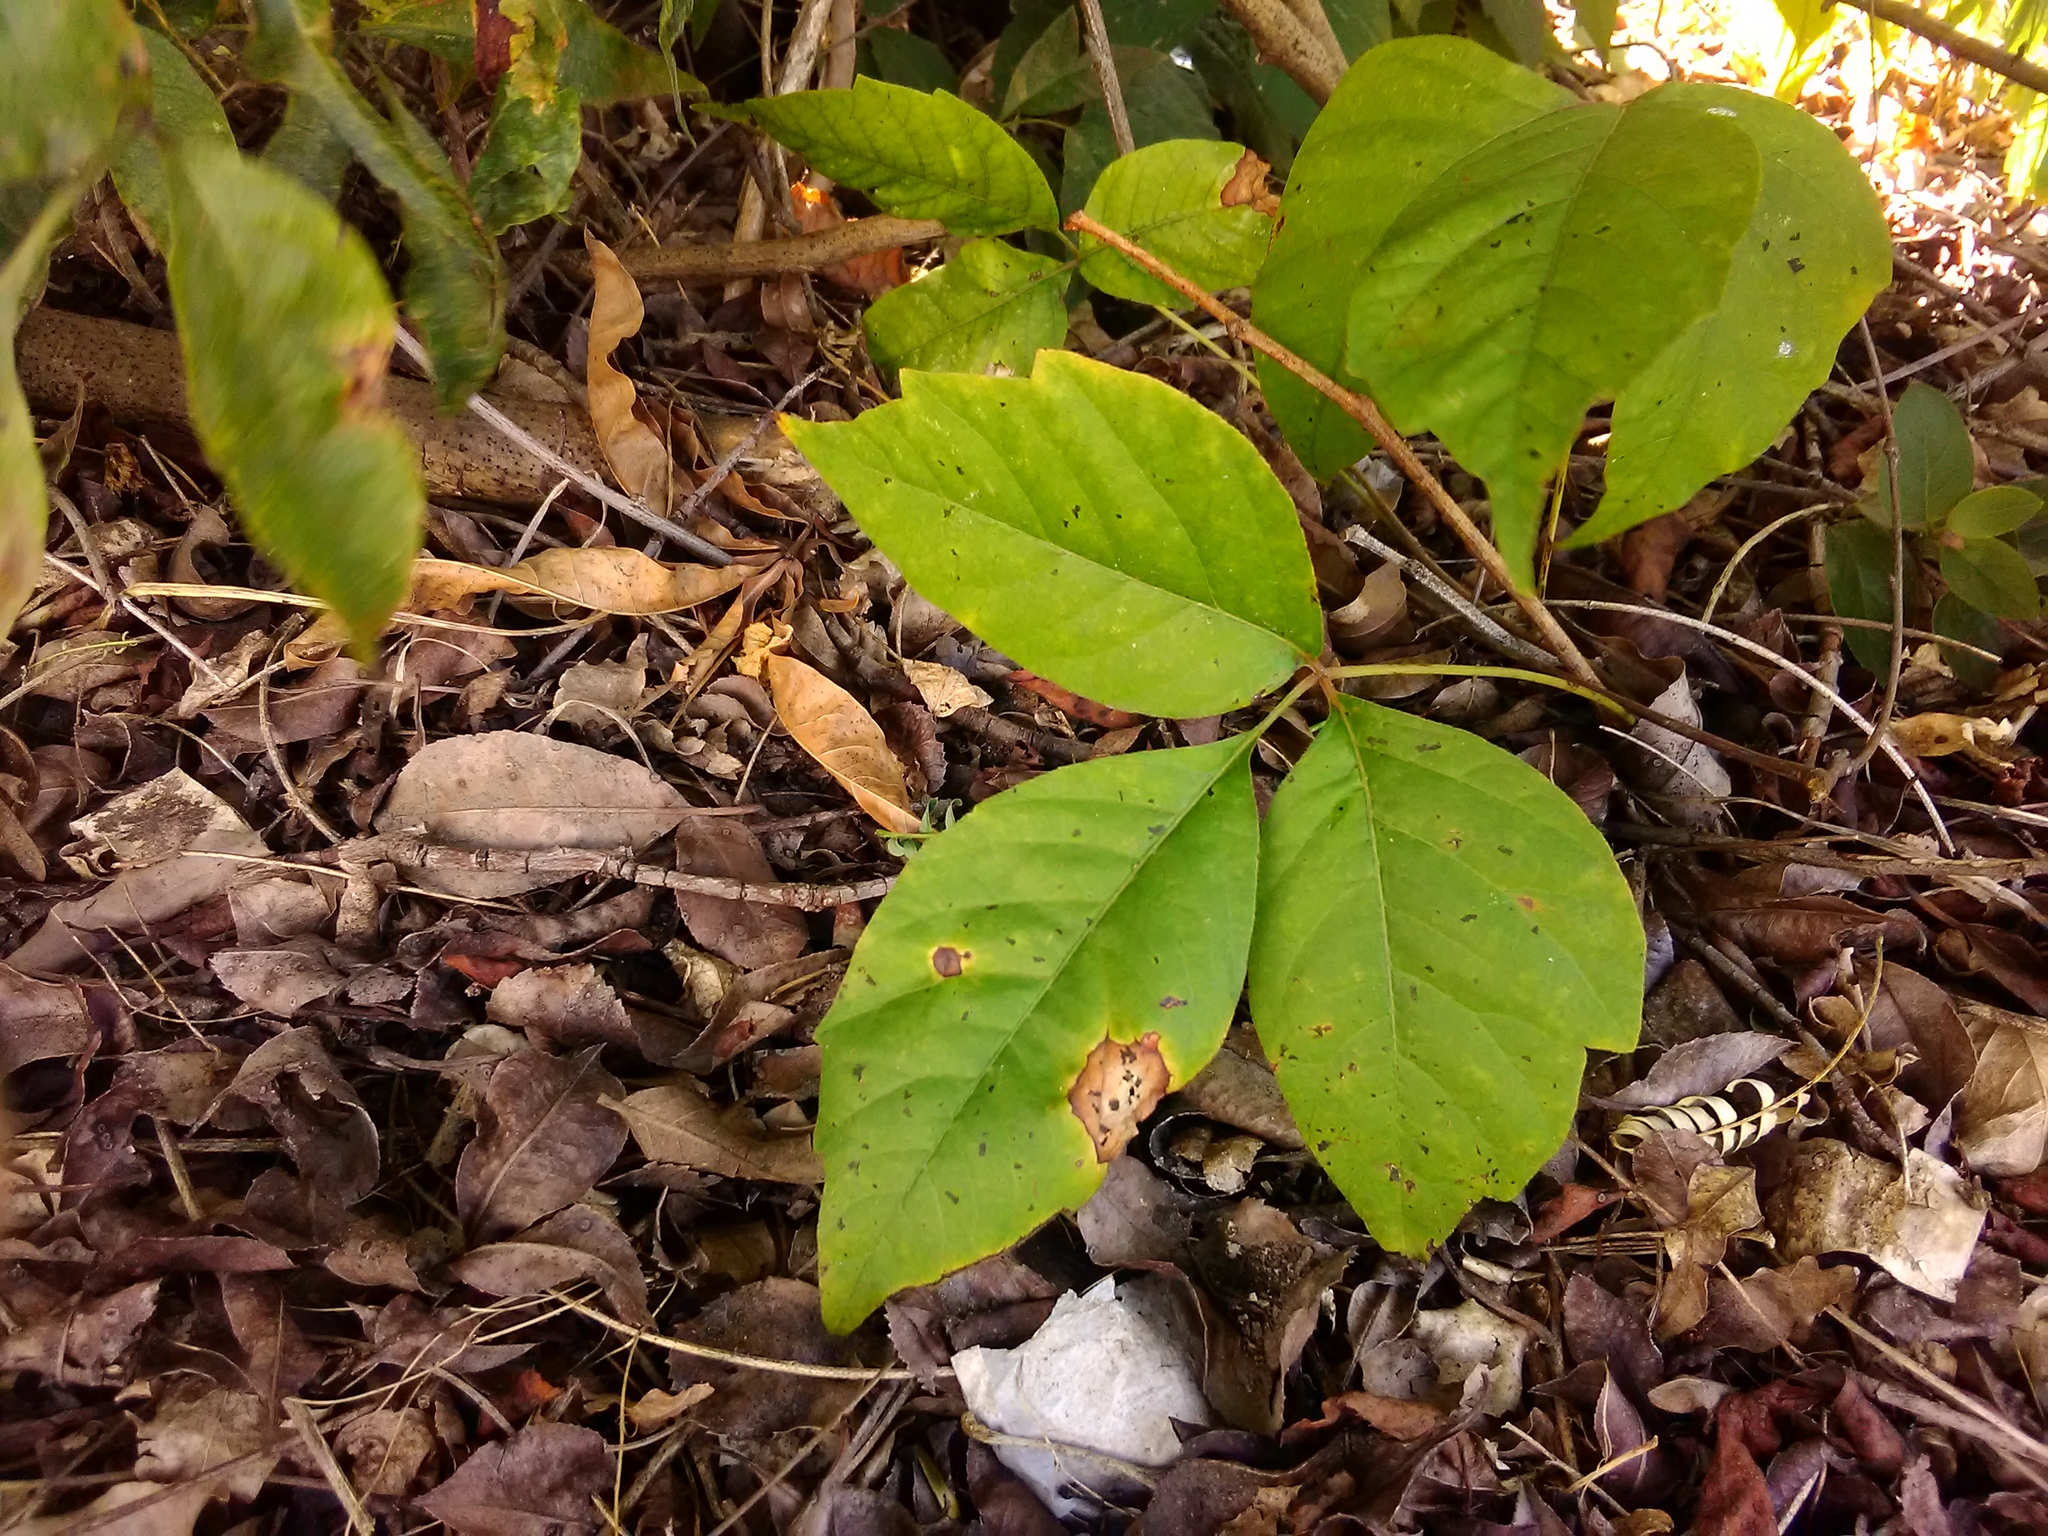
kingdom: Plantae
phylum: Tracheophyta
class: Magnoliopsida
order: Sapindales
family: Anacardiaceae
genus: Toxicodendron
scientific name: Toxicodendron radicans
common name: Poison ivy
